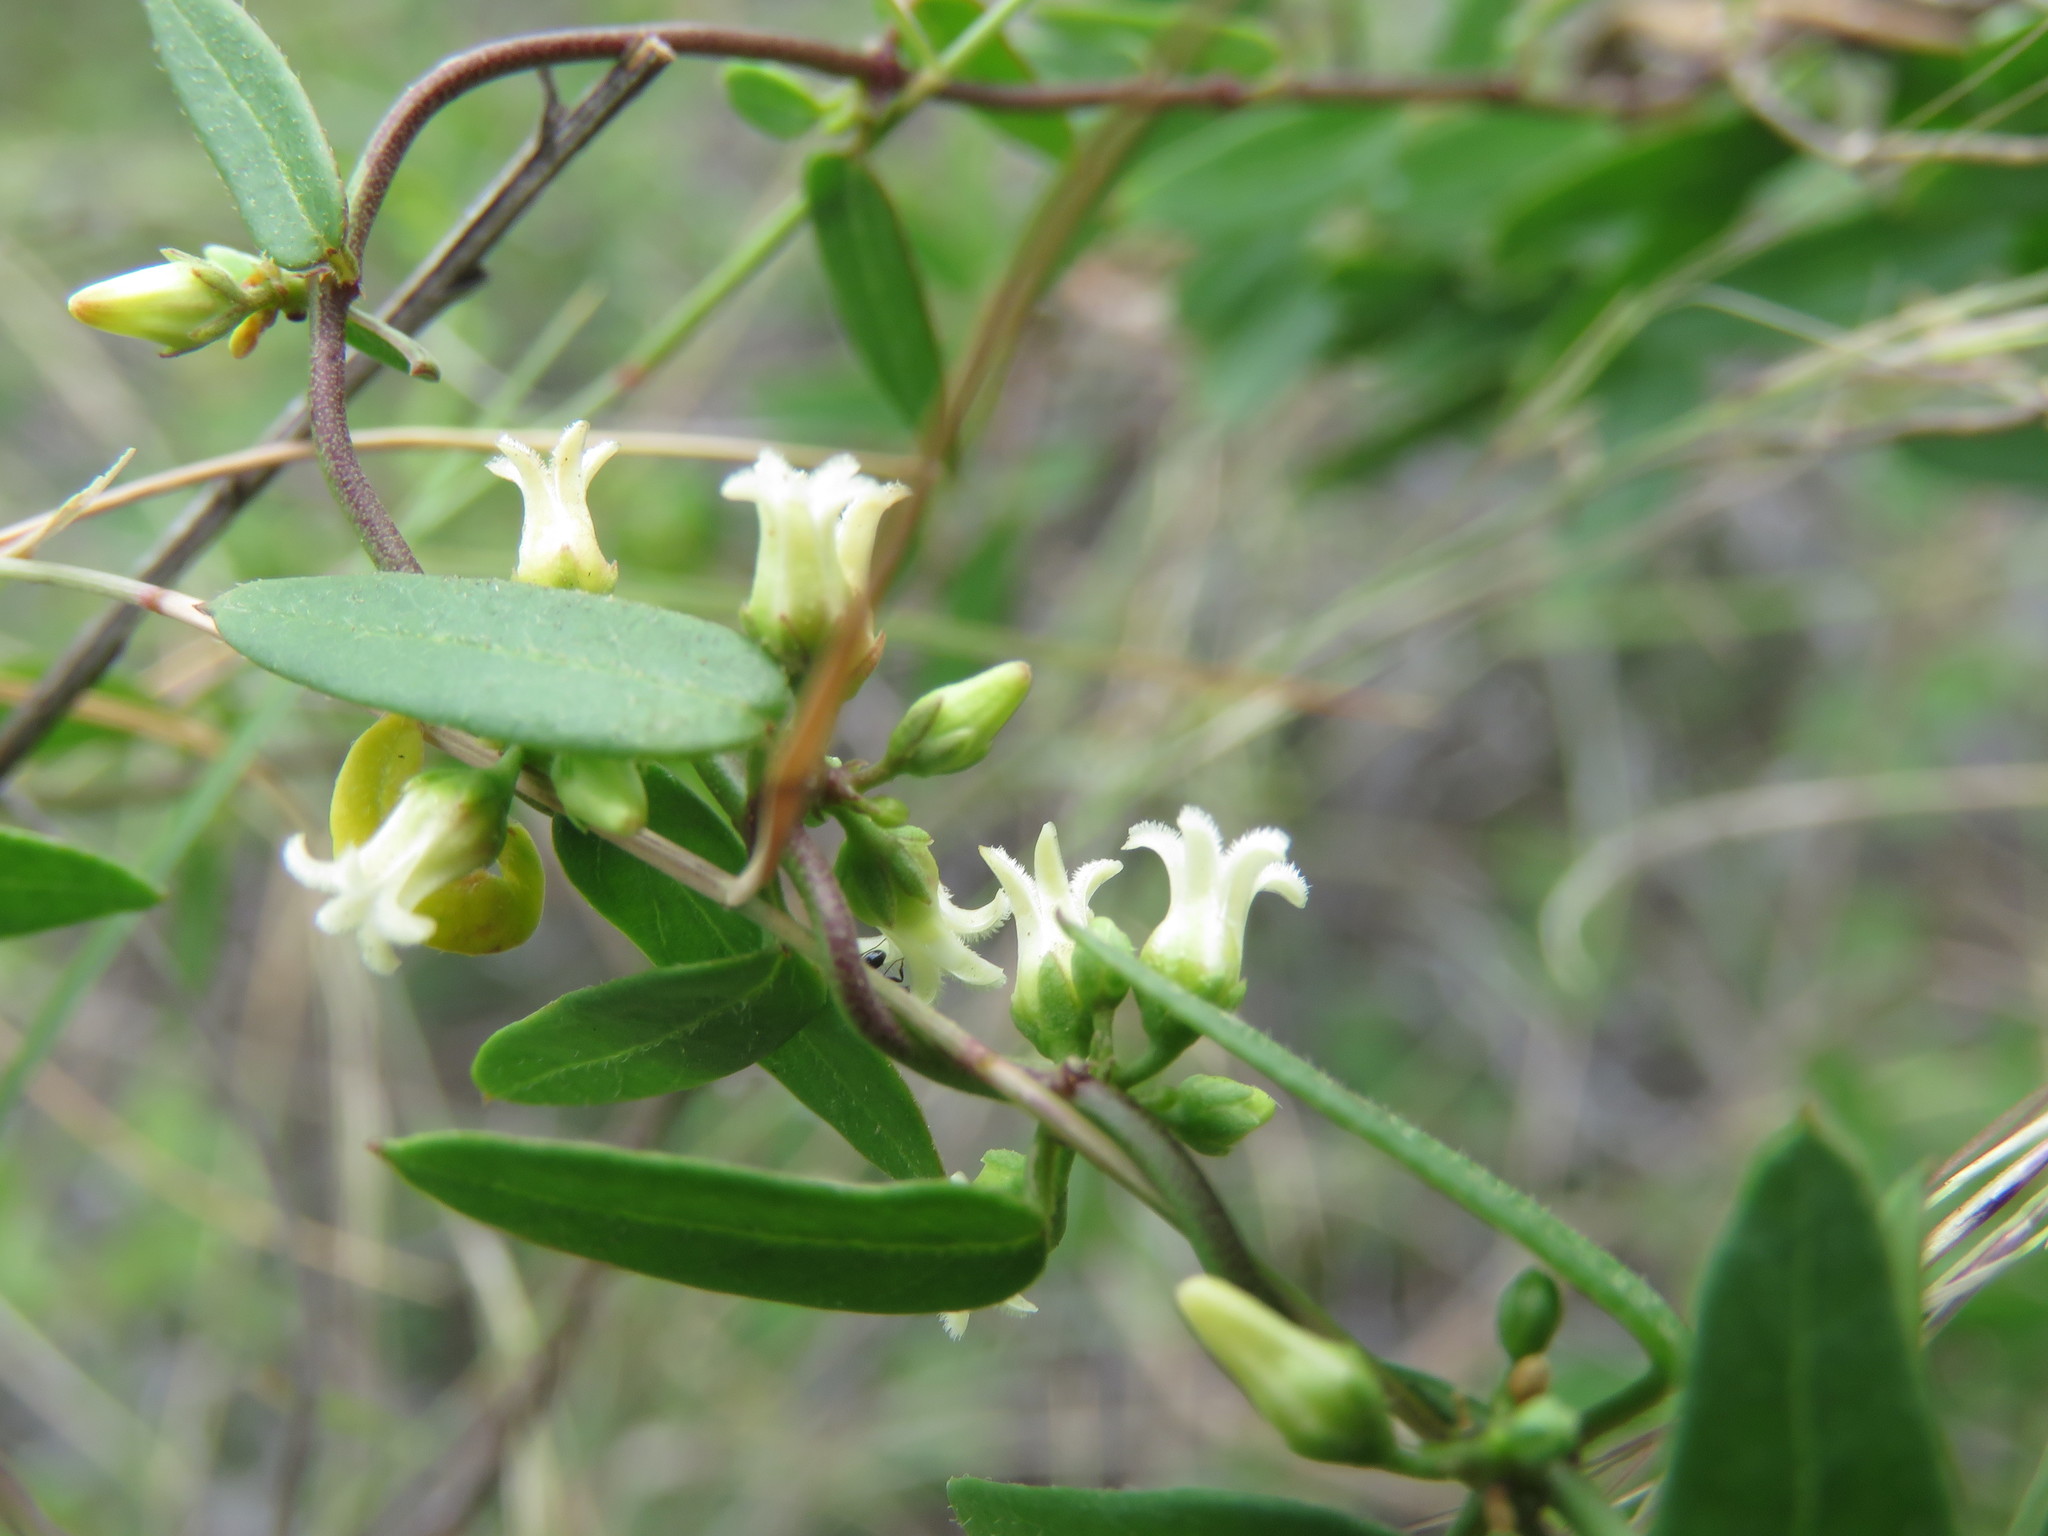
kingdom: Plantae
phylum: Tracheophyta
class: Magnoliopsida
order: Gentianales
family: Apocynaceae
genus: Metastelma
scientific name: Metastelma barbigerum
